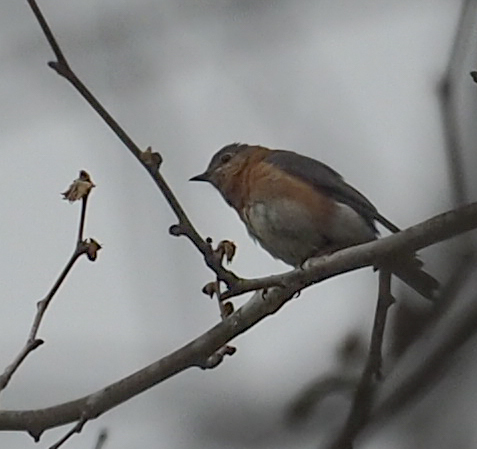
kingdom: Animalia
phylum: Chordata
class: Aves
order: Passeriformes
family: Turdidae
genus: Sialia
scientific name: Sialia sialis
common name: Eastern bluebird
